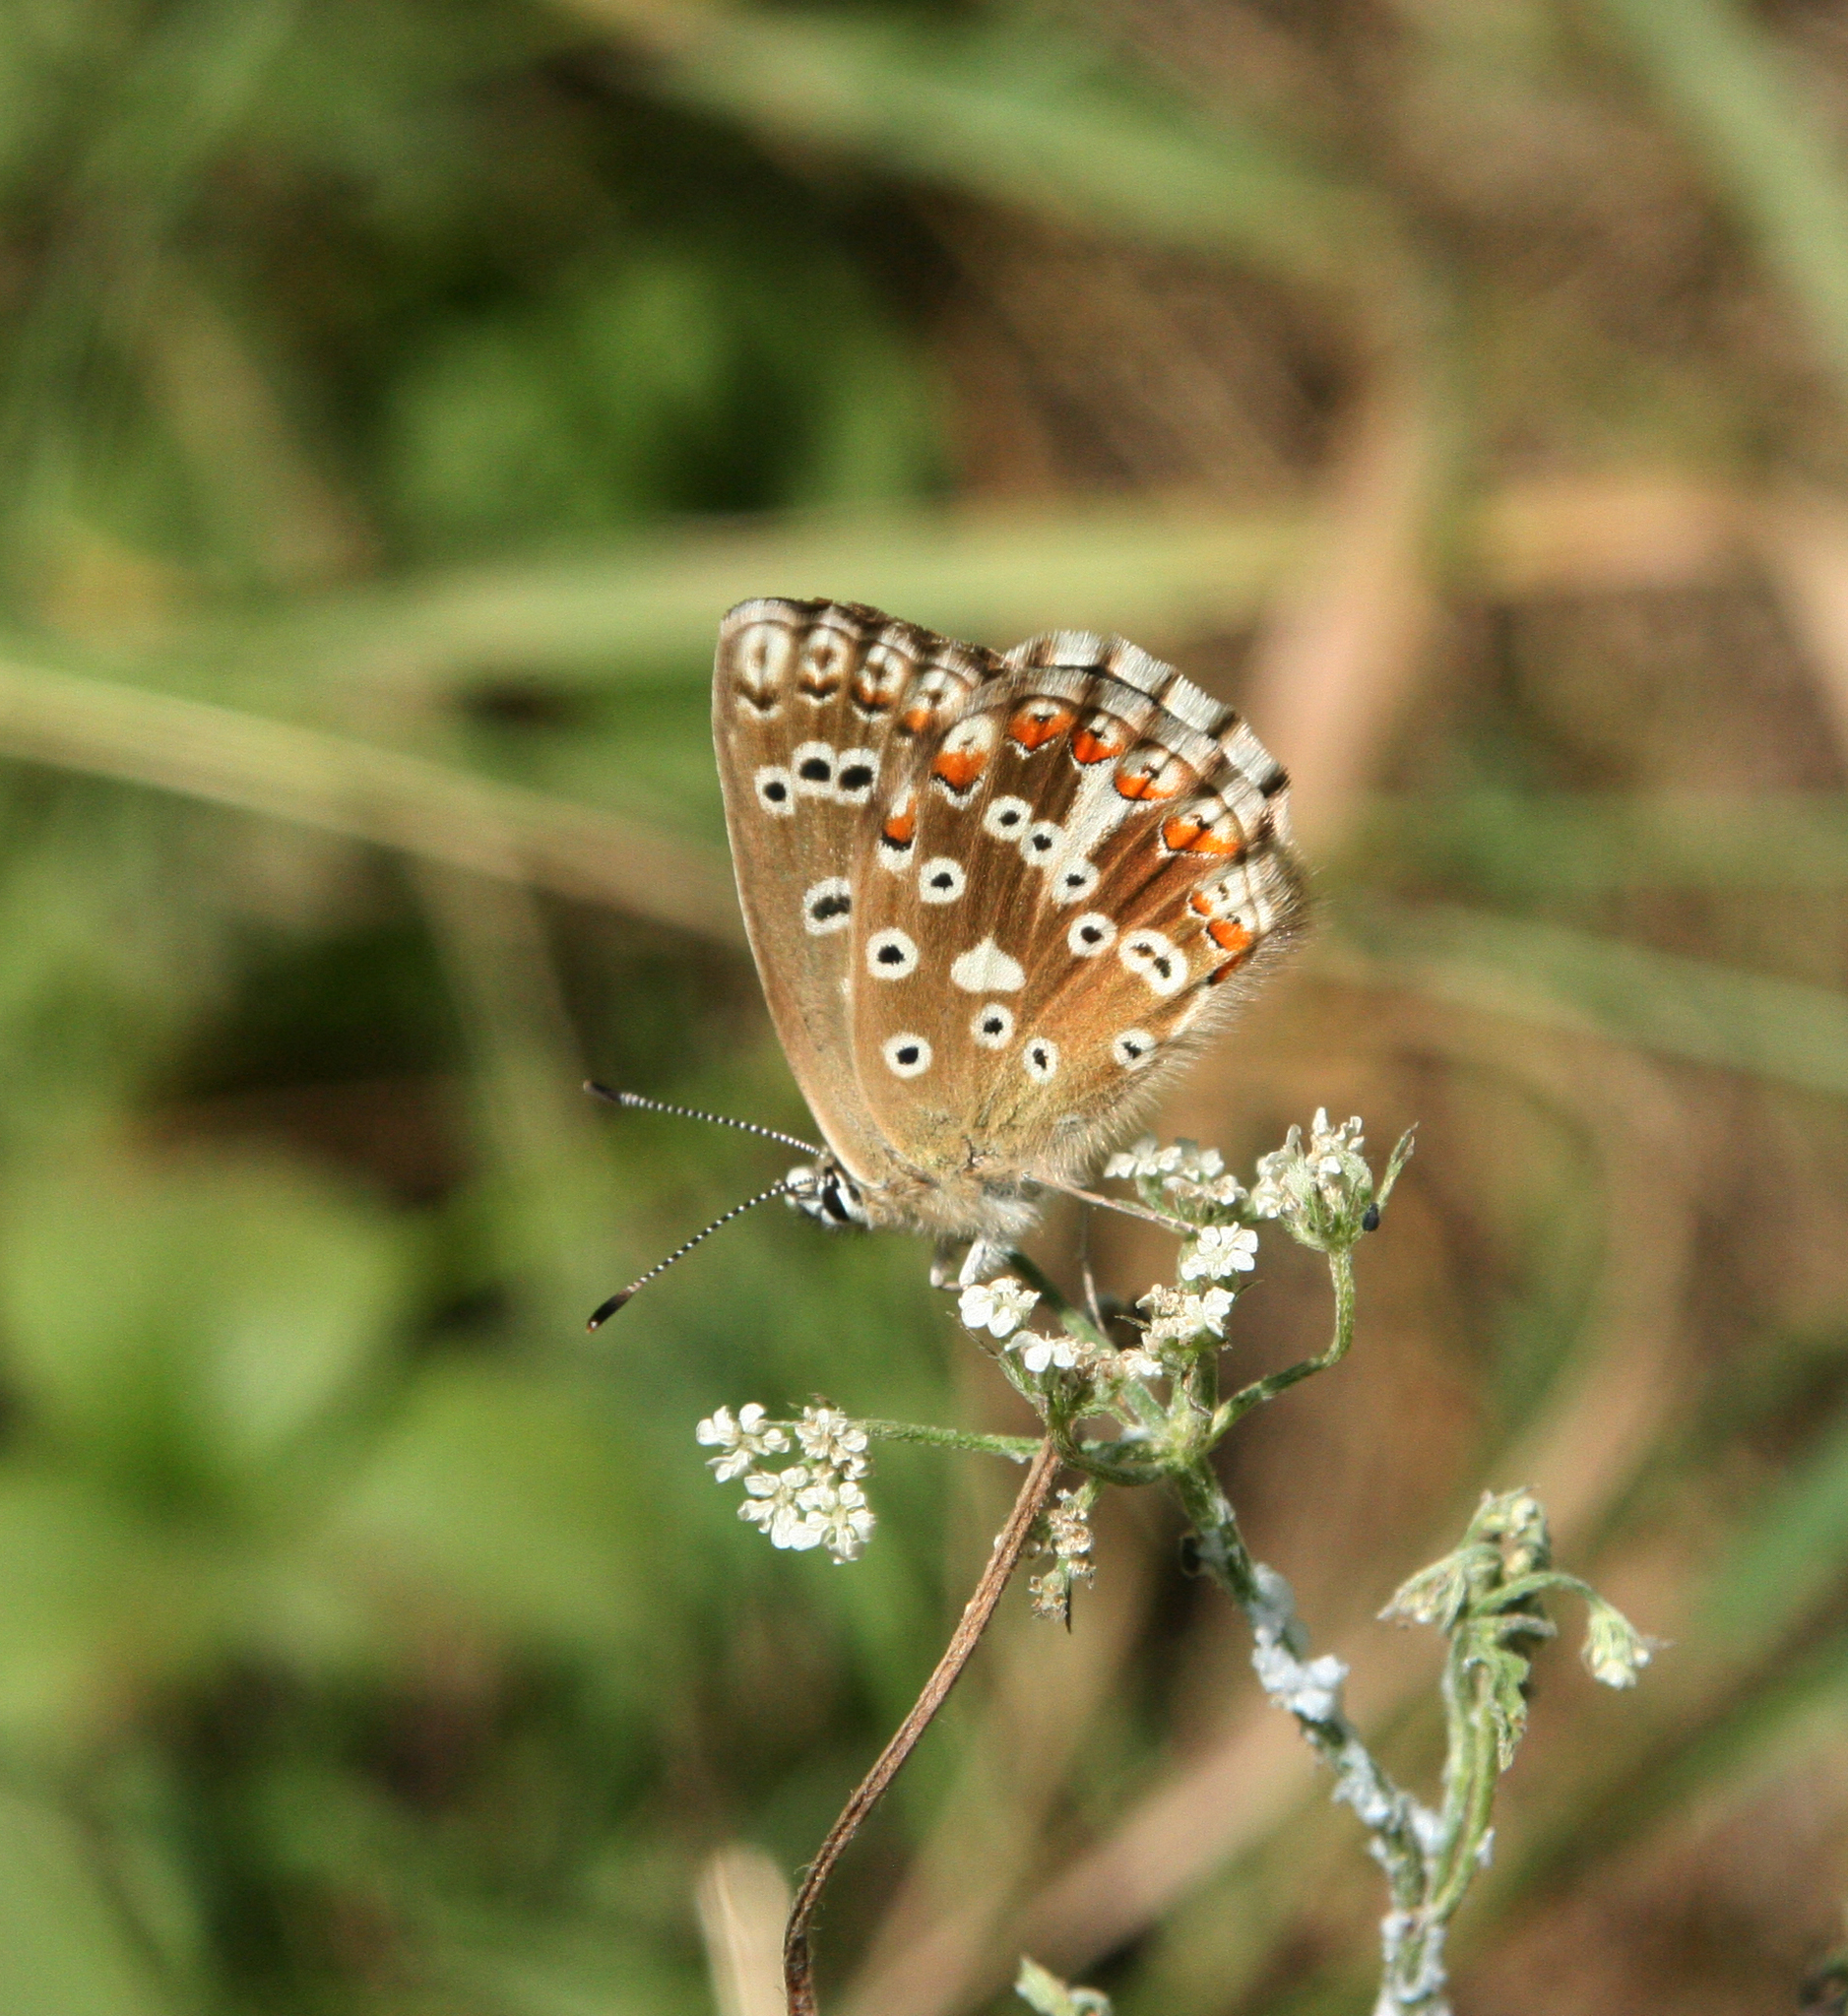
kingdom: Animalia
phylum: Arthropoda
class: Insecta
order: Lepidoptera
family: Lycaenidae
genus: Agriades
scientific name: Agriades corydonius
